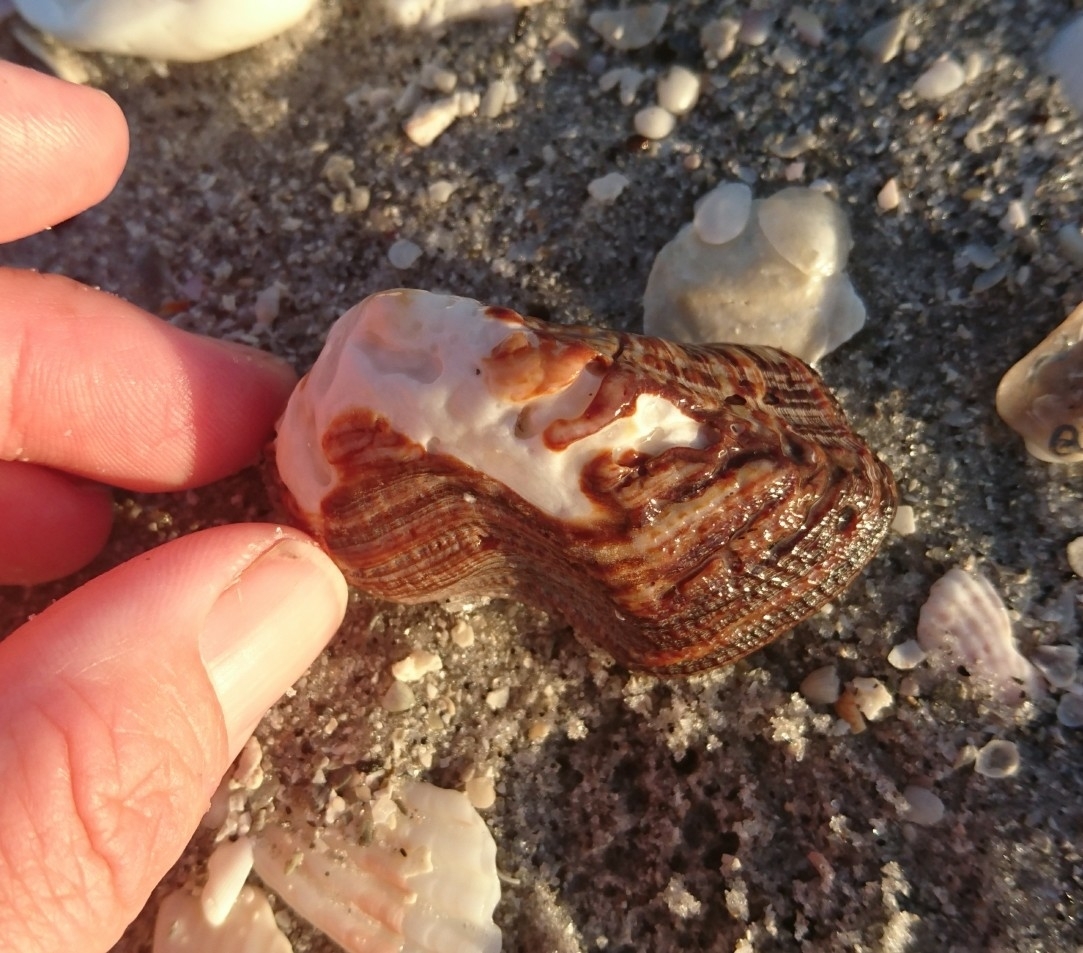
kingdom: Animalia
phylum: Mollusca
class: Bivalvia
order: Arcida
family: Arcidae
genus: Lamarcka
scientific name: Lamarcka imbricata
